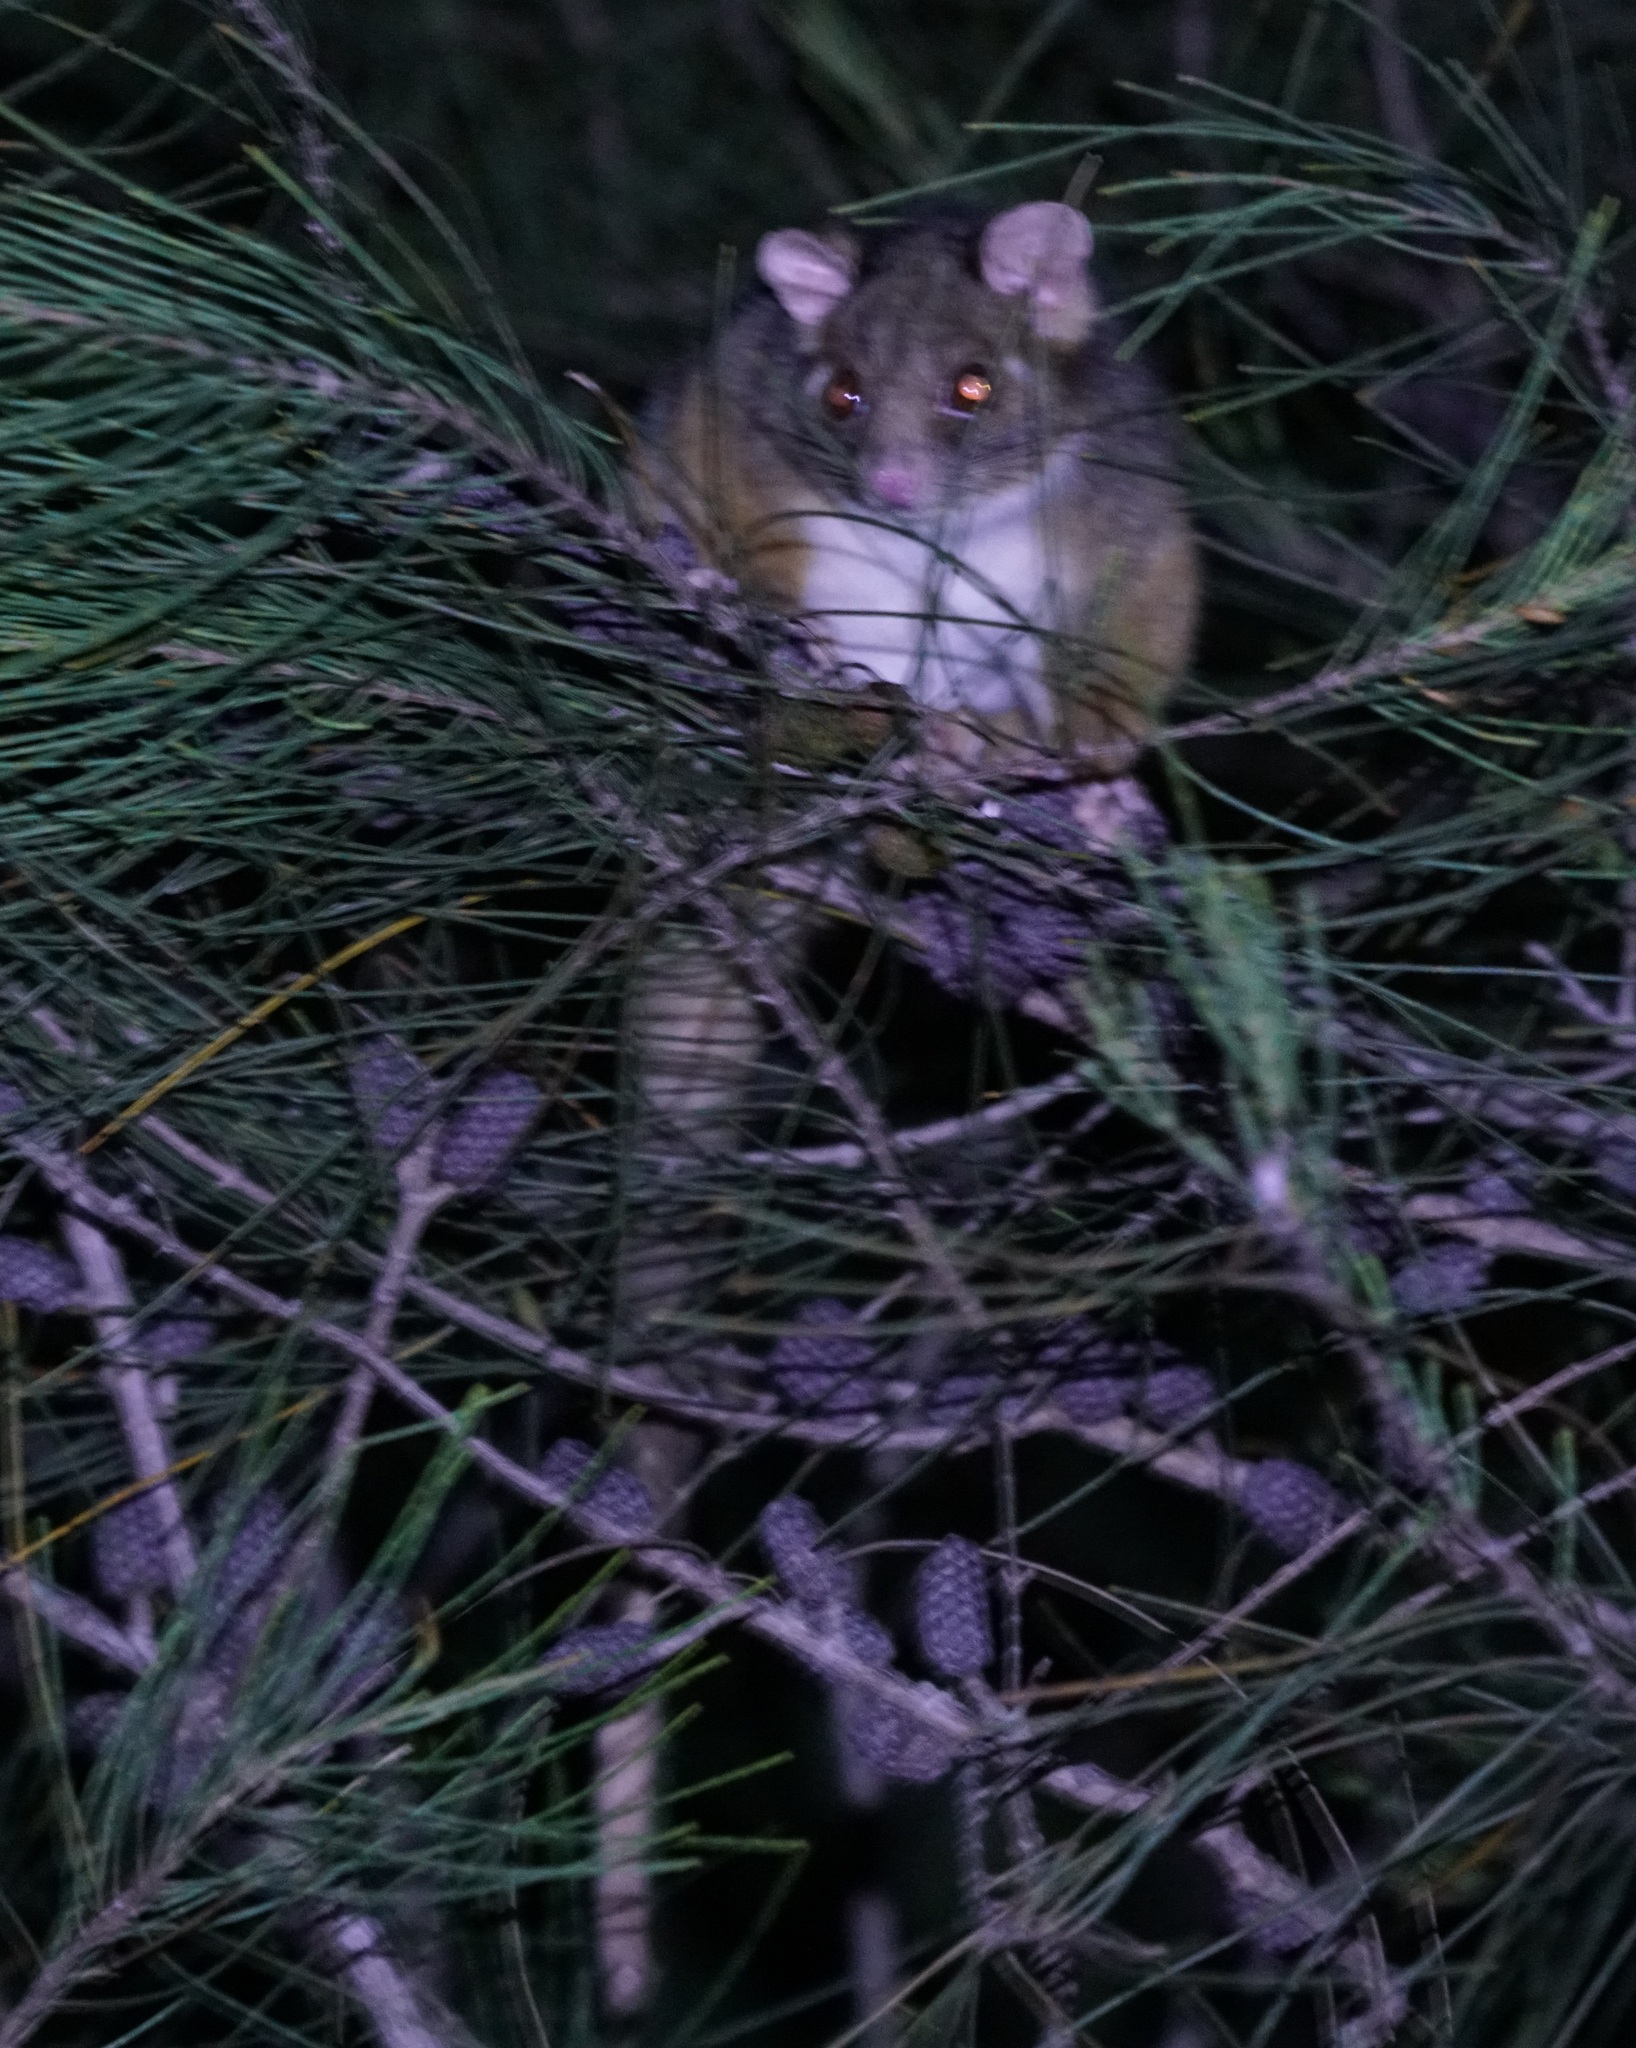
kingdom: Animalia
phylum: Chordata
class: Mammalia
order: Diprotodontia
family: Pseudocheiridae
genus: Pseudocheirus
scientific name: Pseudocheirus peregrinus
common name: Common ringtail possum
